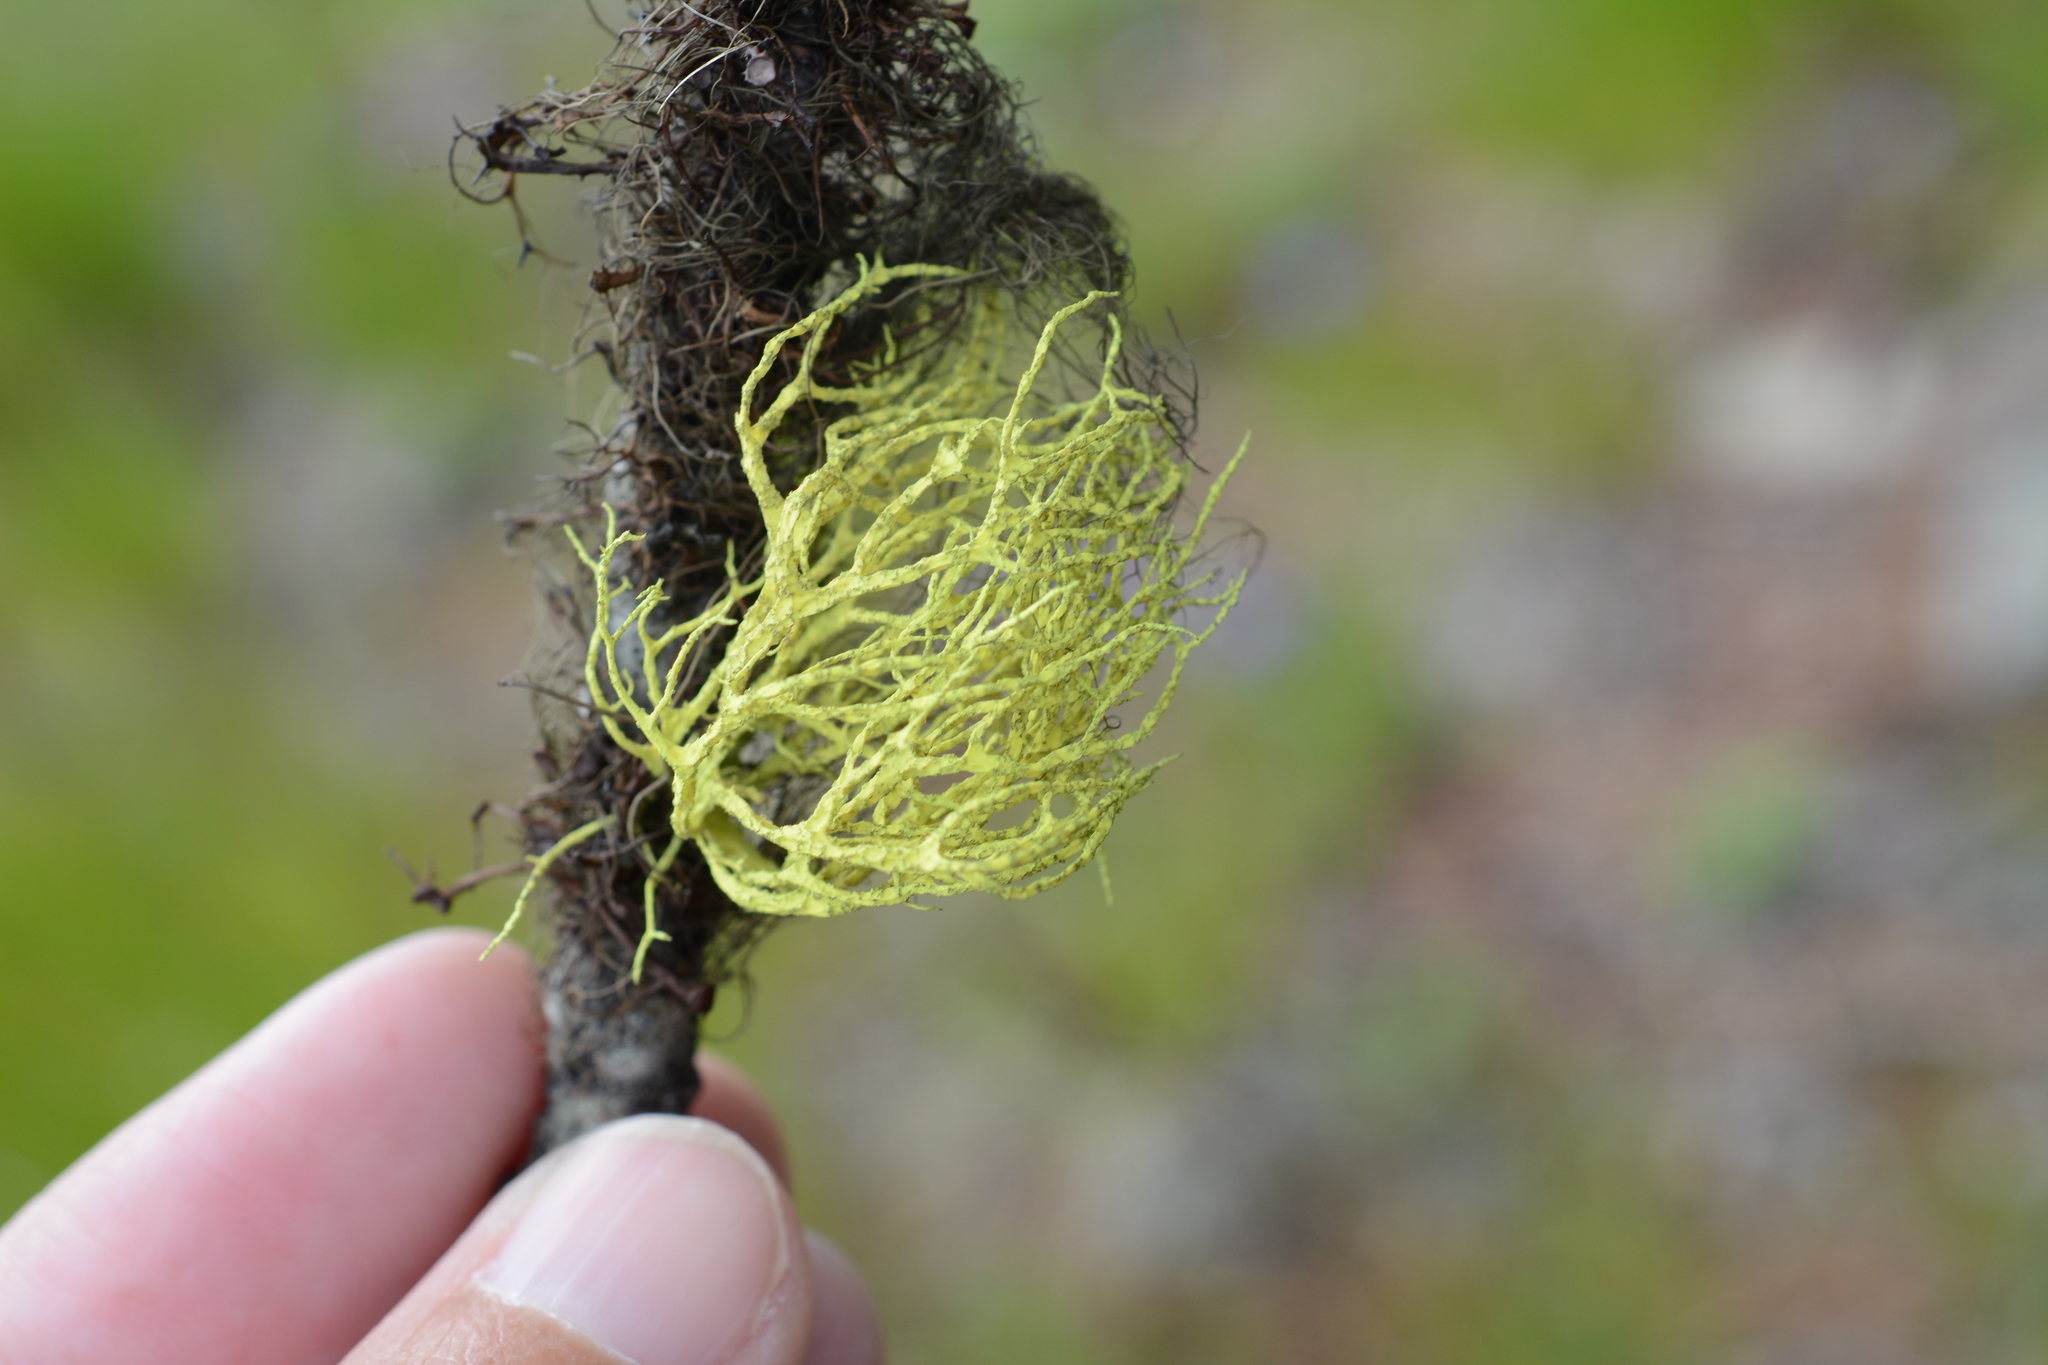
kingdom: Fungi
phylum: Ascomycota
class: Lecanoromycetes
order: Lecanorales
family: Parmeliaceae
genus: Letharia
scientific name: Letharia lupina
